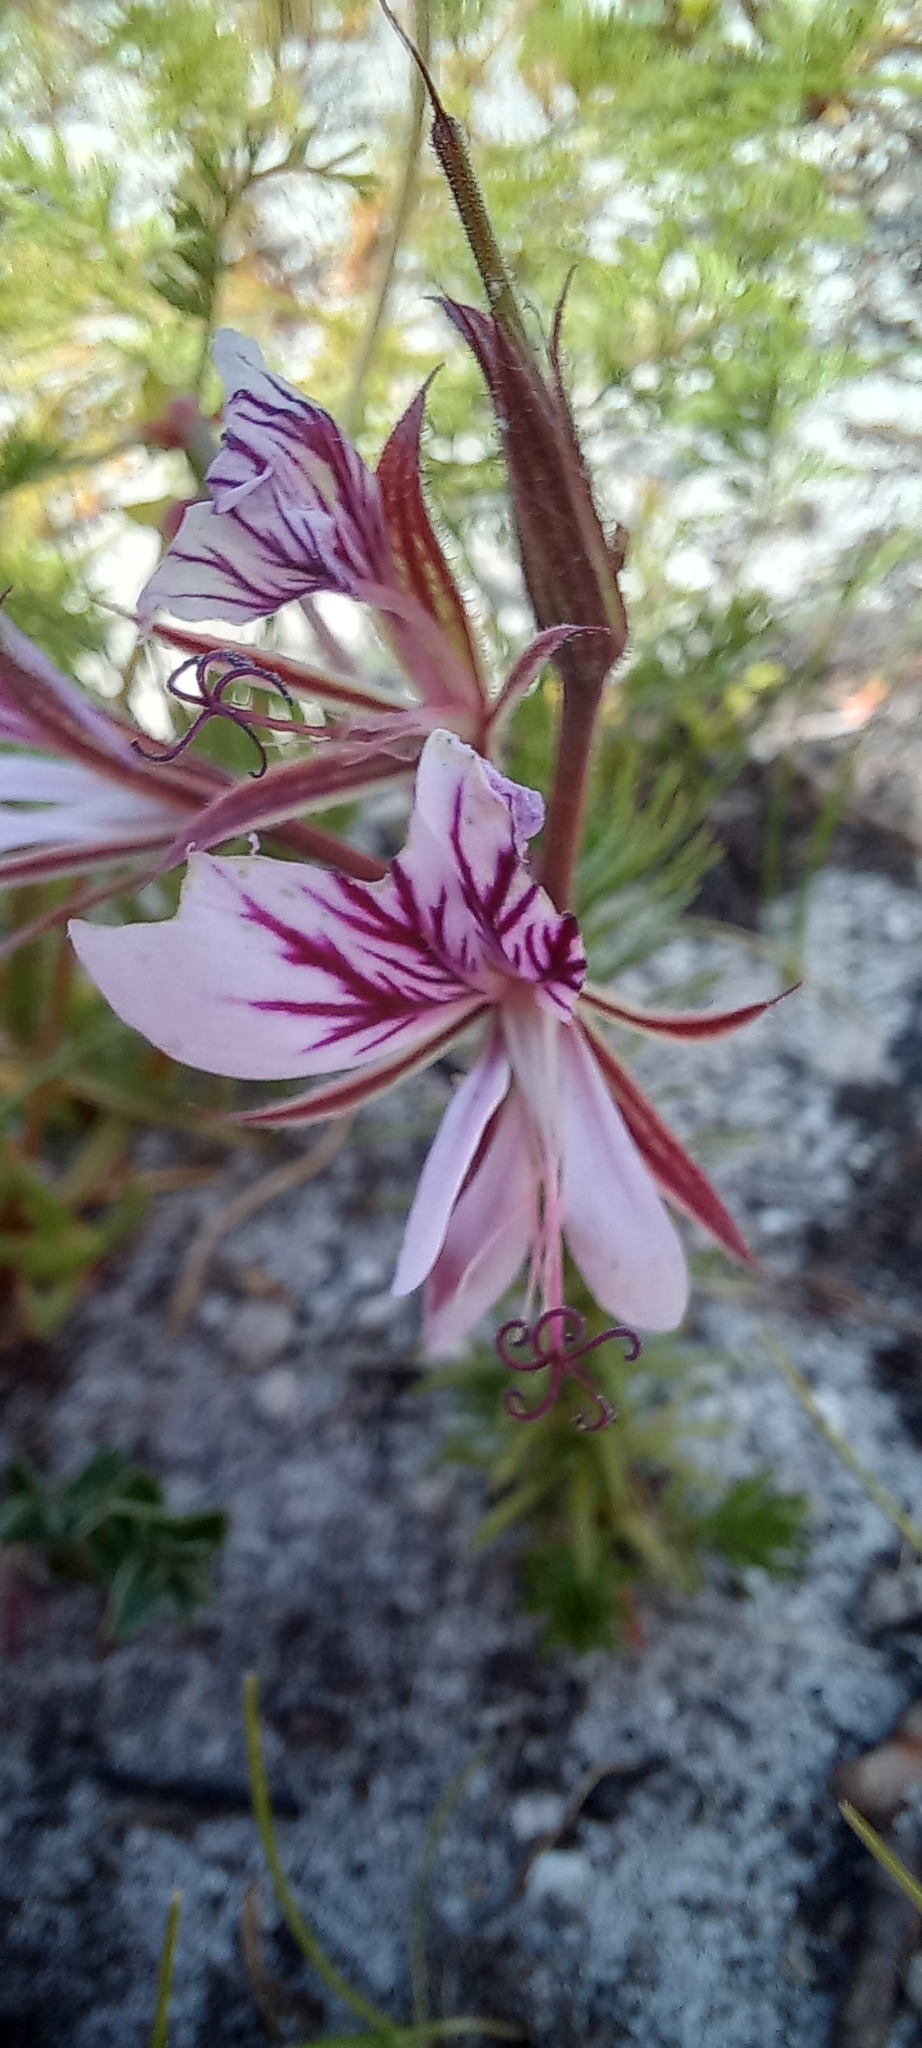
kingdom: Plantae
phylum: Tracheophyta
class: Magnoliopsida
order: Geraniales
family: Geraniaceae
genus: Pelargonium
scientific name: Pelargonium myrrhifolium
